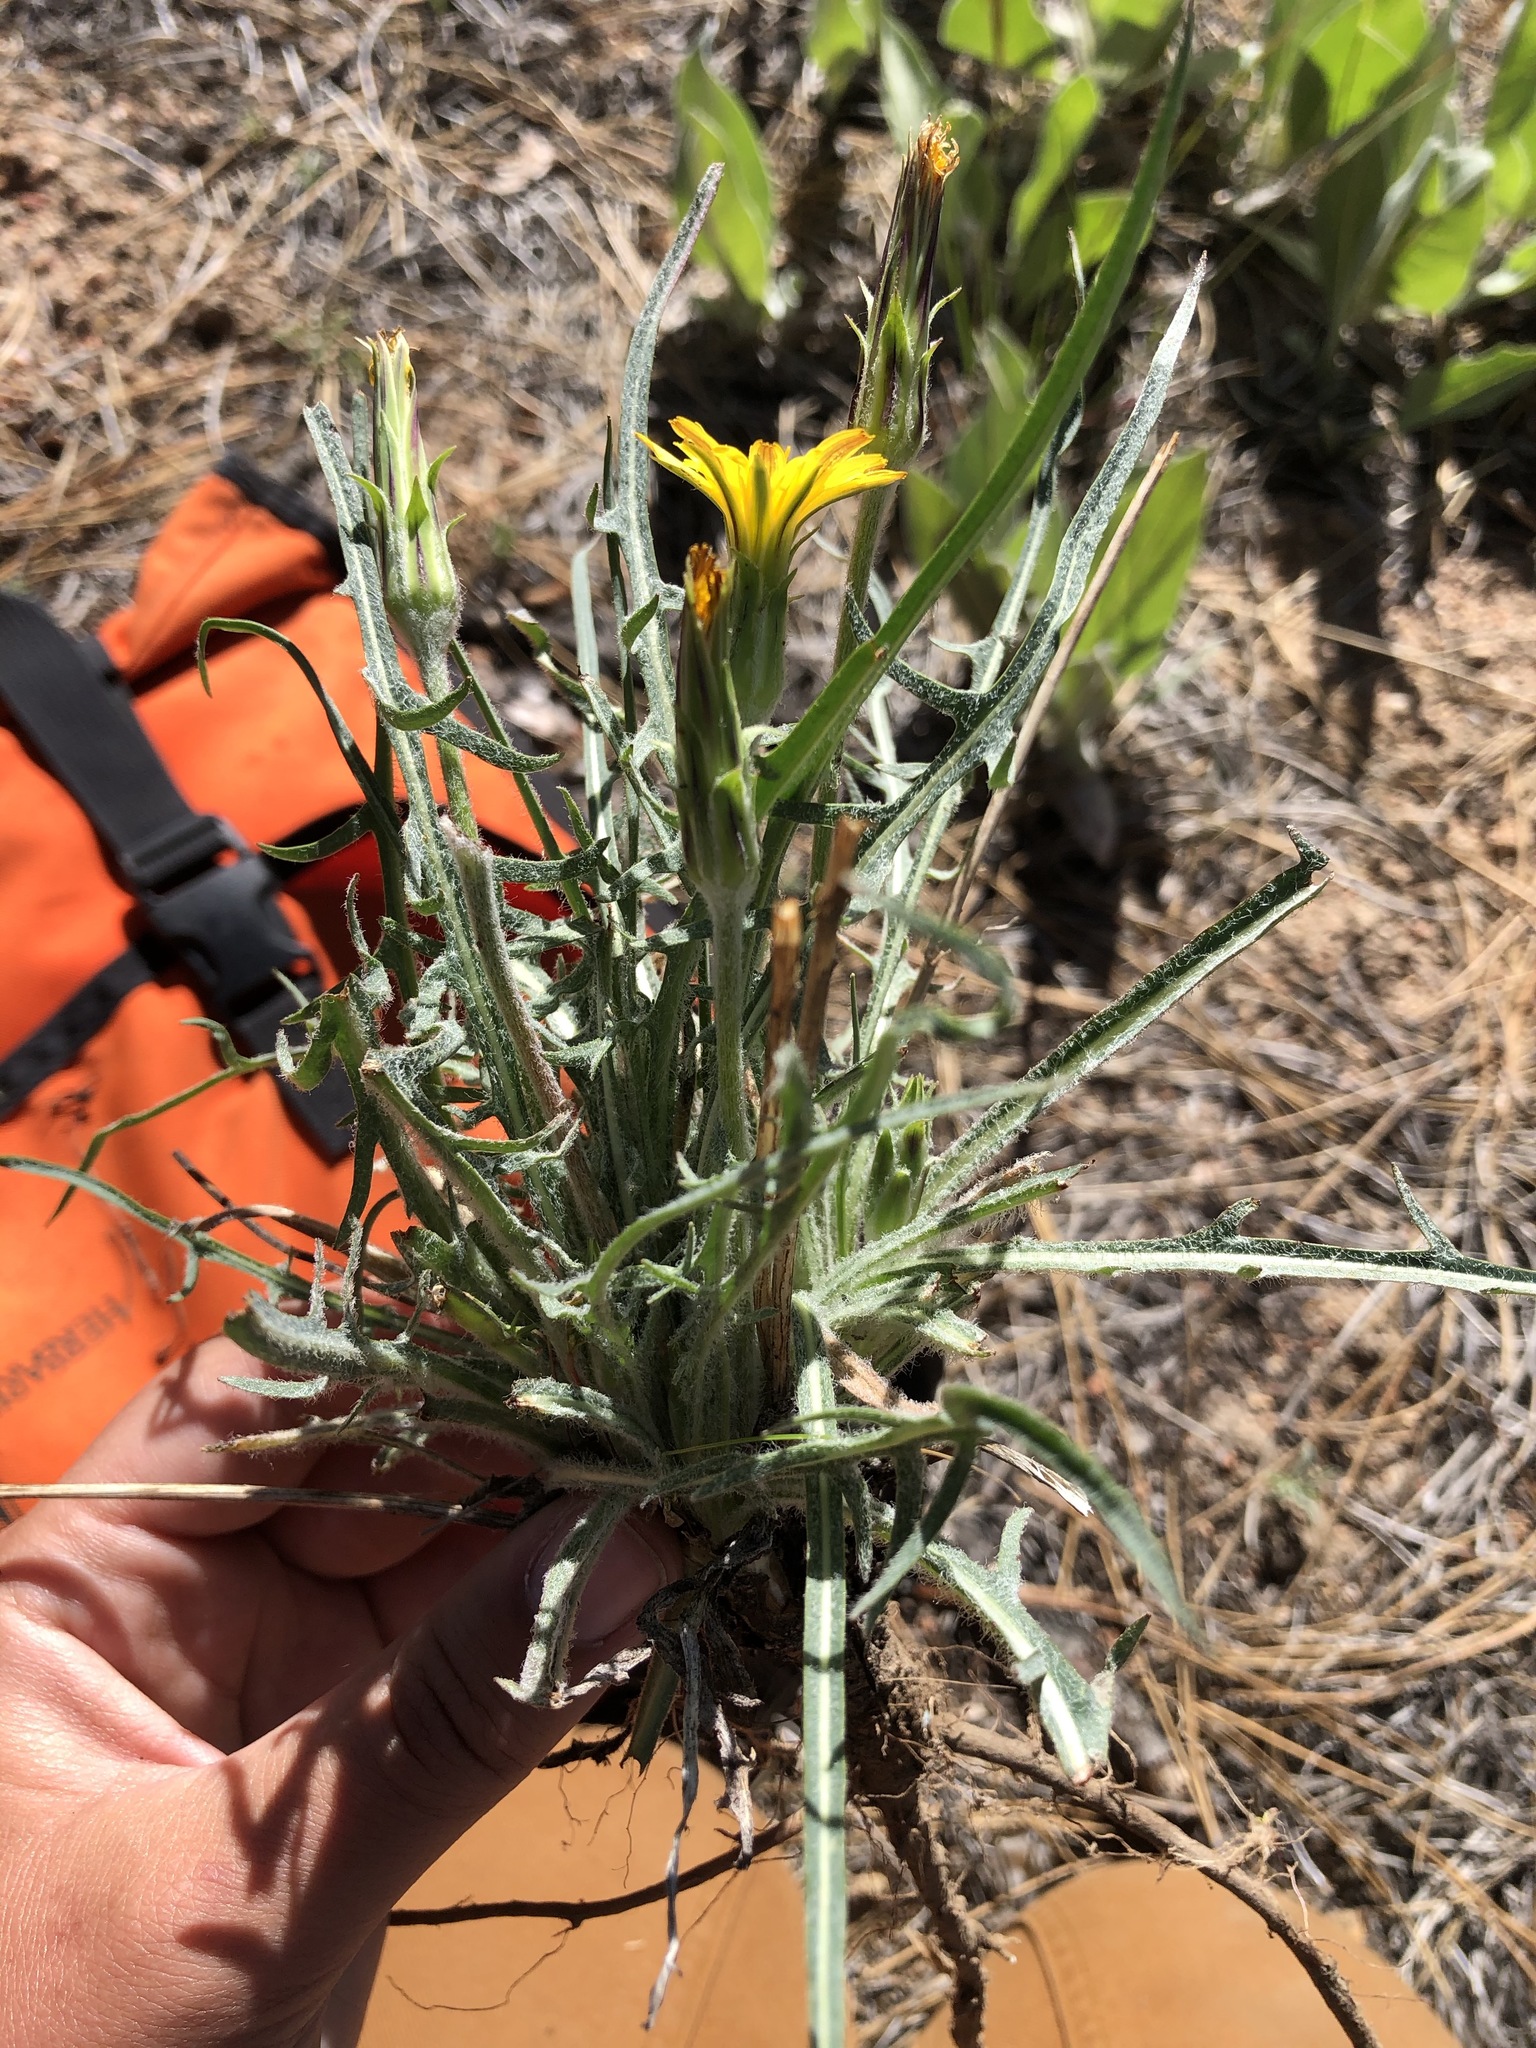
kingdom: Plantae
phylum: Tracheophyta
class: Magnoliopsida
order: Asterales
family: Asteraceae
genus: Agoseris
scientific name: Agoseris retrorsa
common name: Spearleaf agoseris
